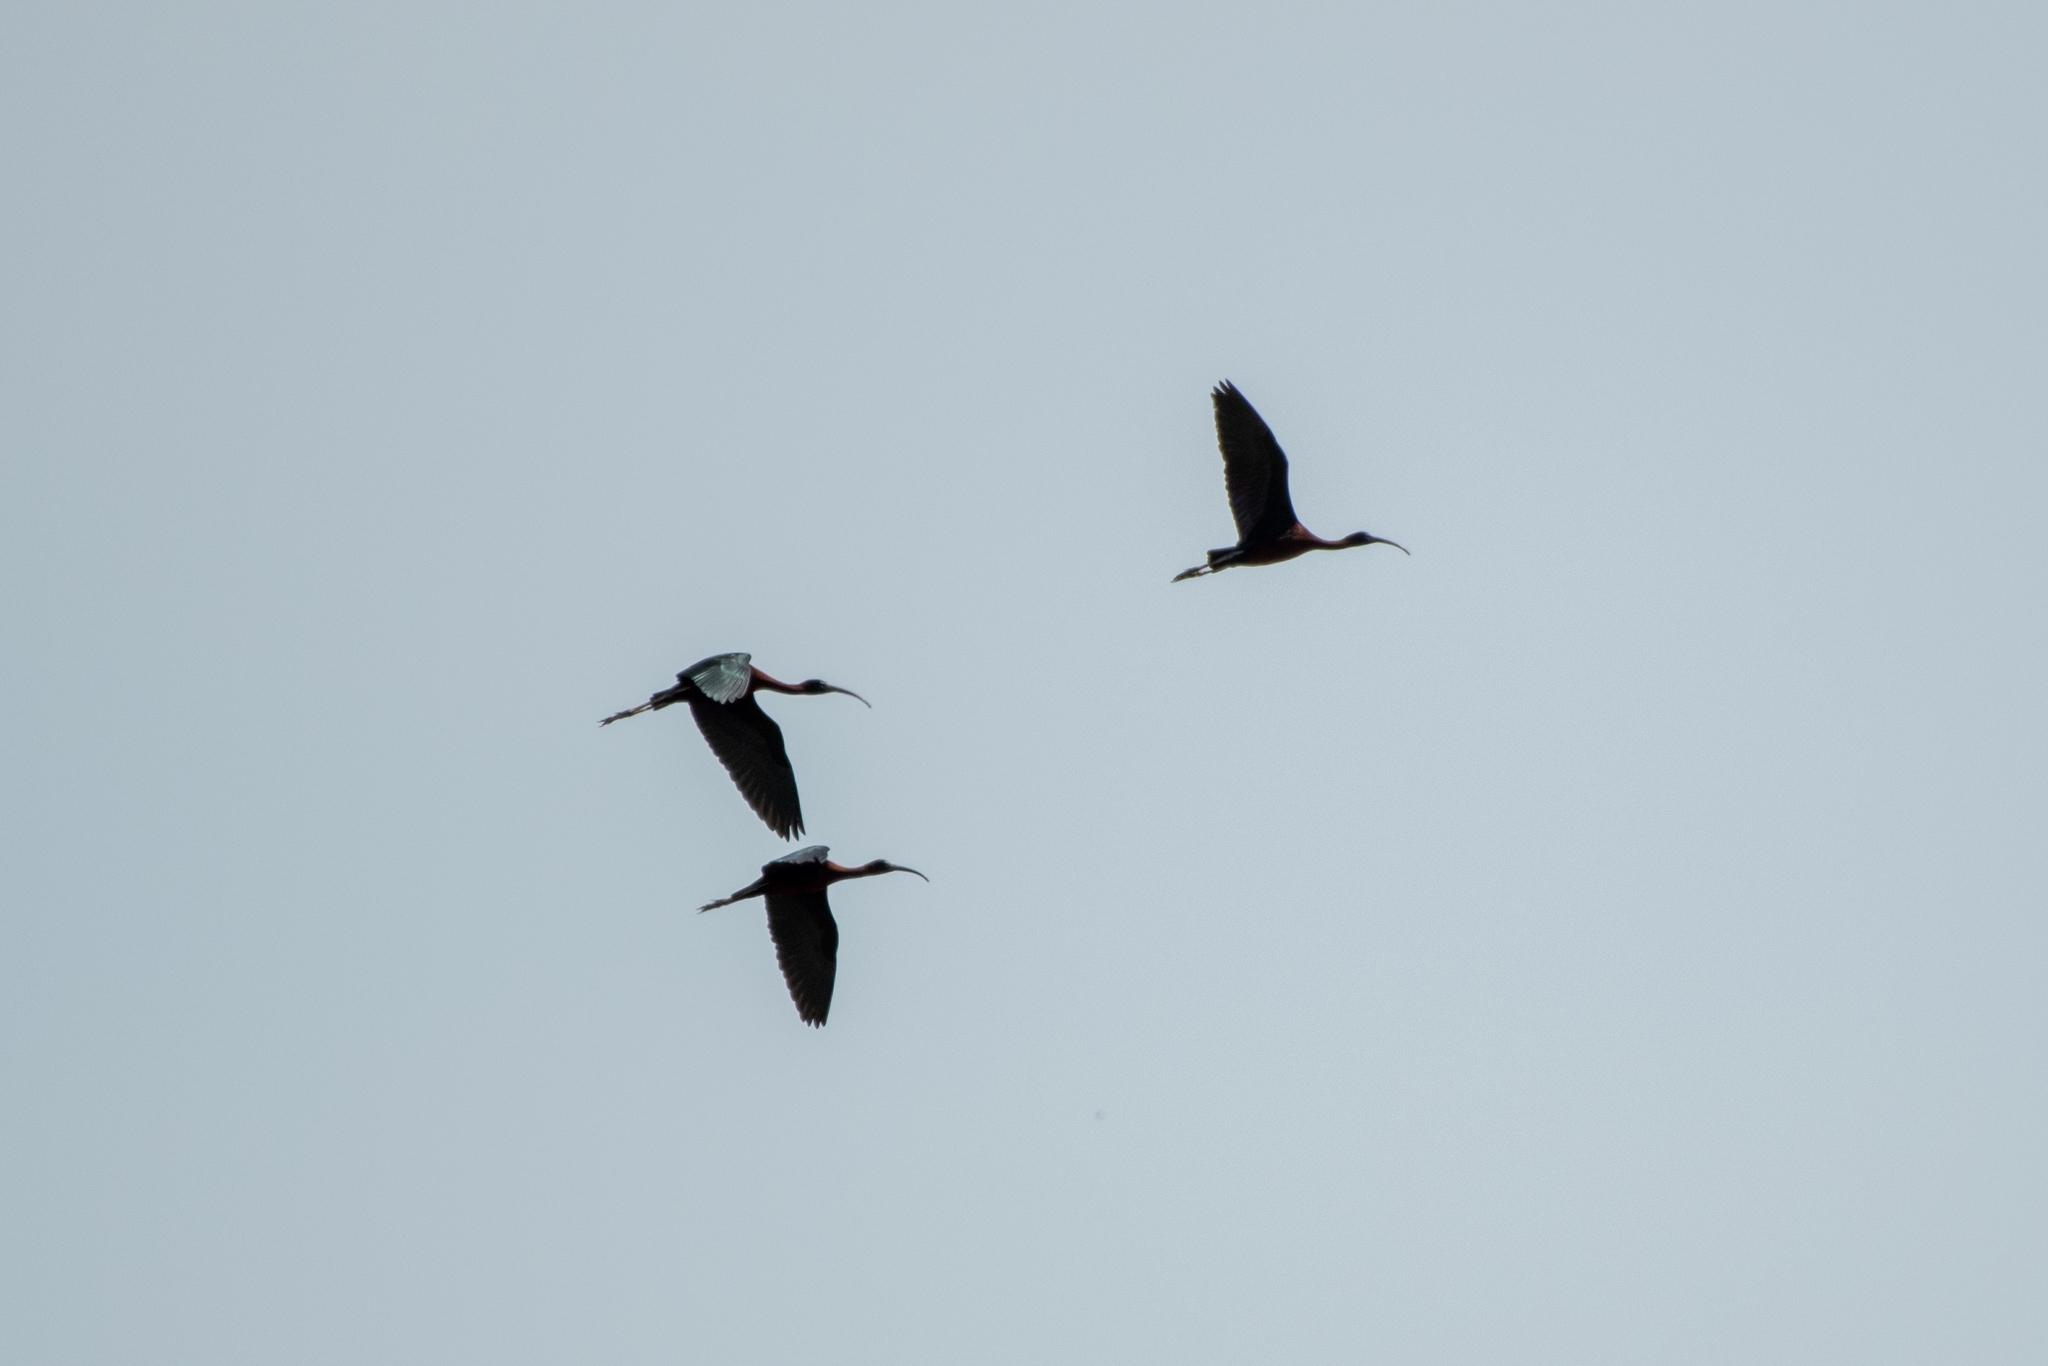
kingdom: Animalia
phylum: Chordata
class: Aves
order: Pelecaniformes
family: Threskiornithidae
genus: Plegadis
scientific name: Plegadis falcinellus
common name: Glossy ibis
